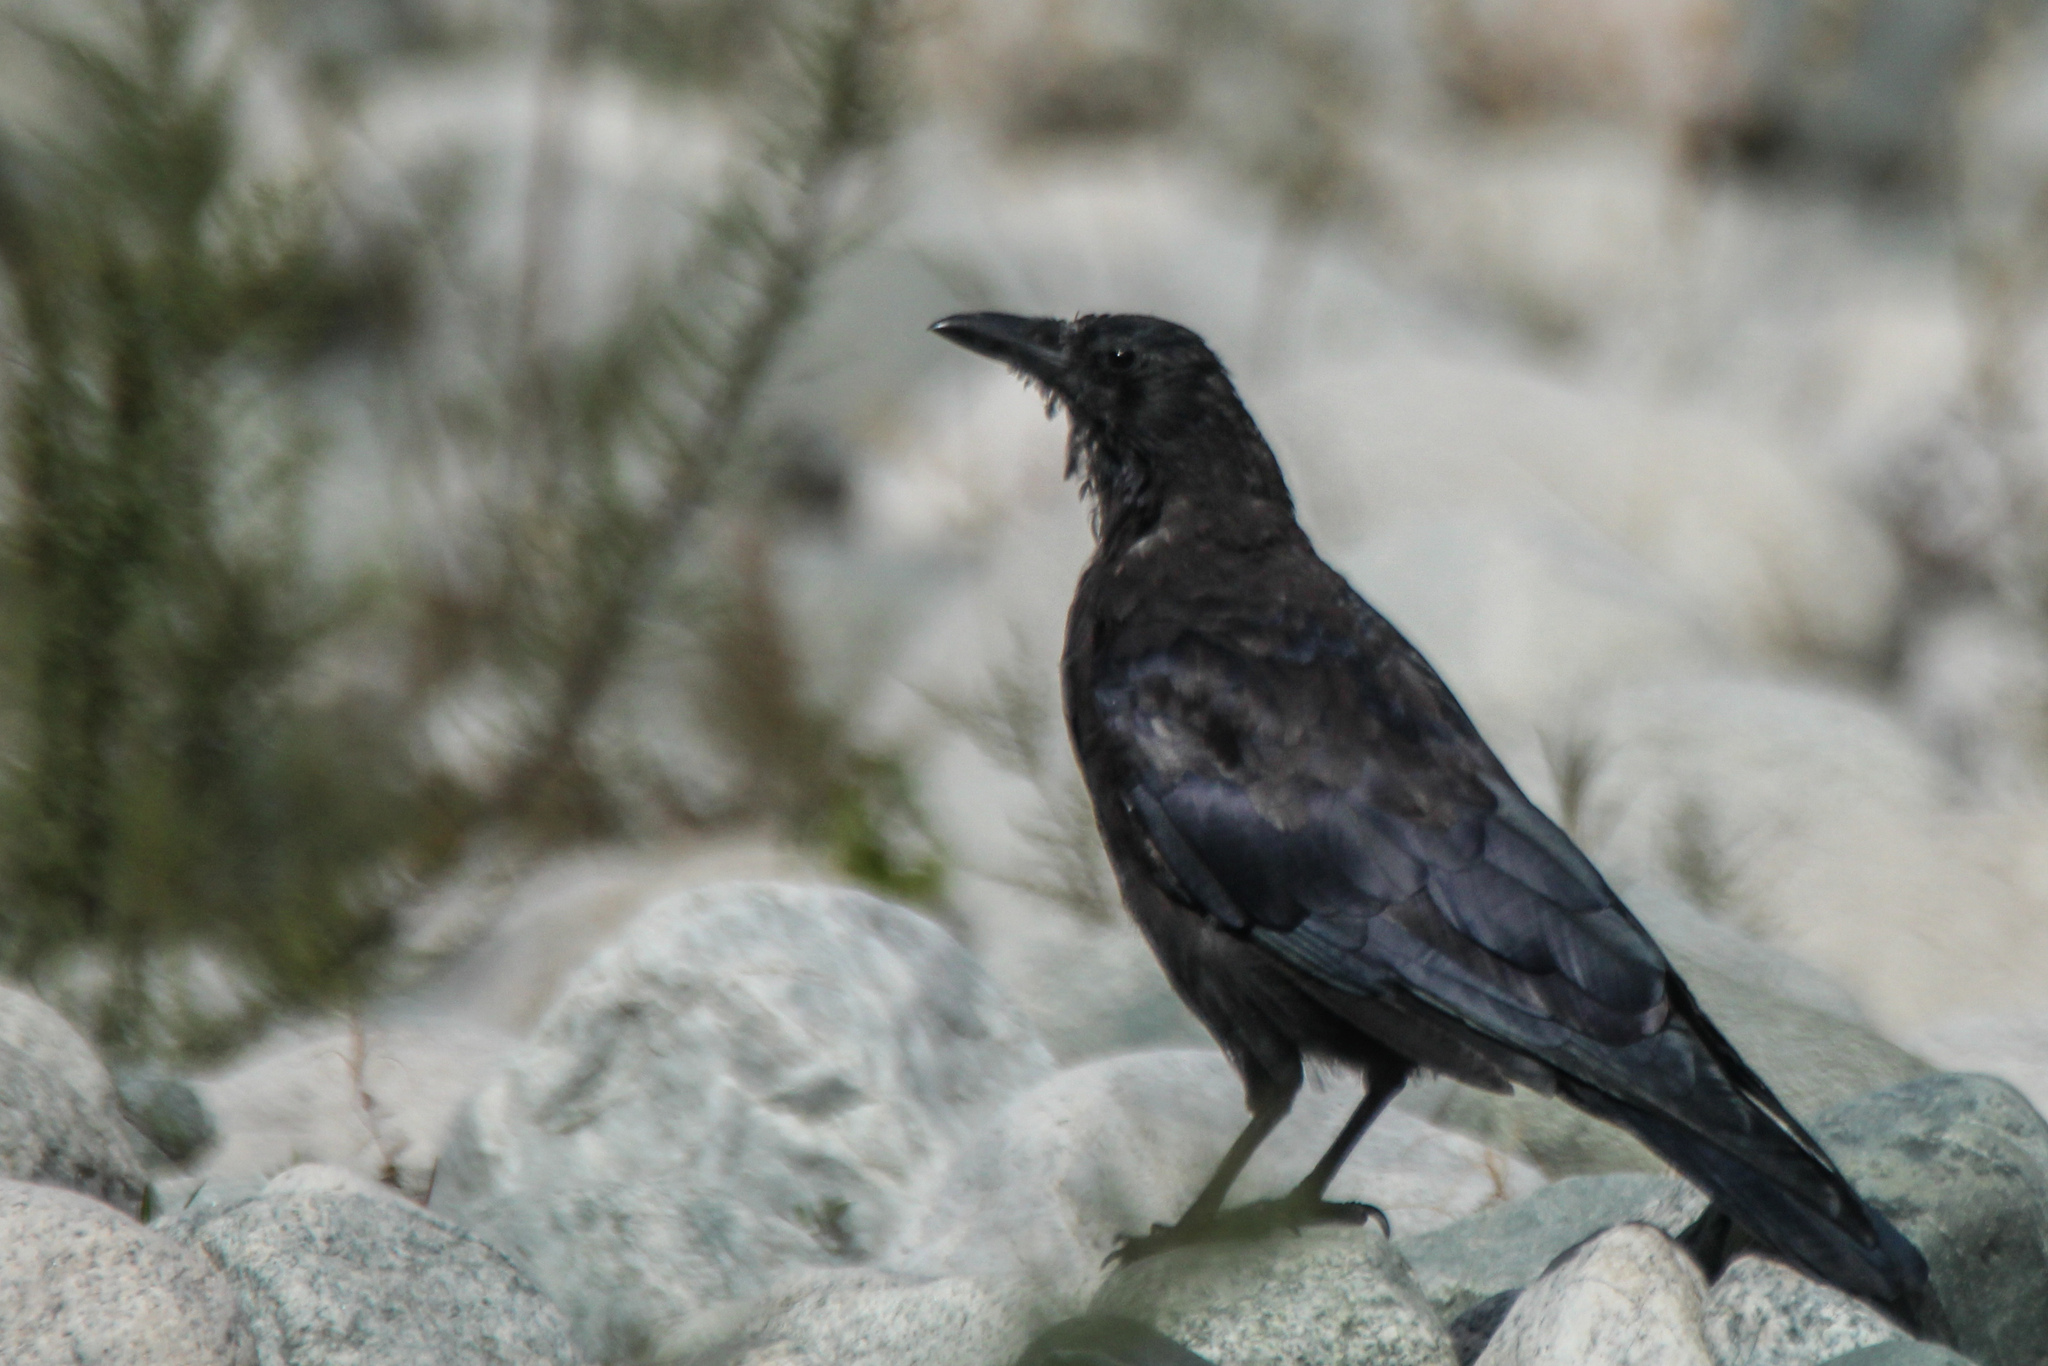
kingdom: Animalia
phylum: Chordata
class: Aves
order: Passeriformes
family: Corvidae
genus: Corvus
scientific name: Corvus corone
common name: Carrion crow
